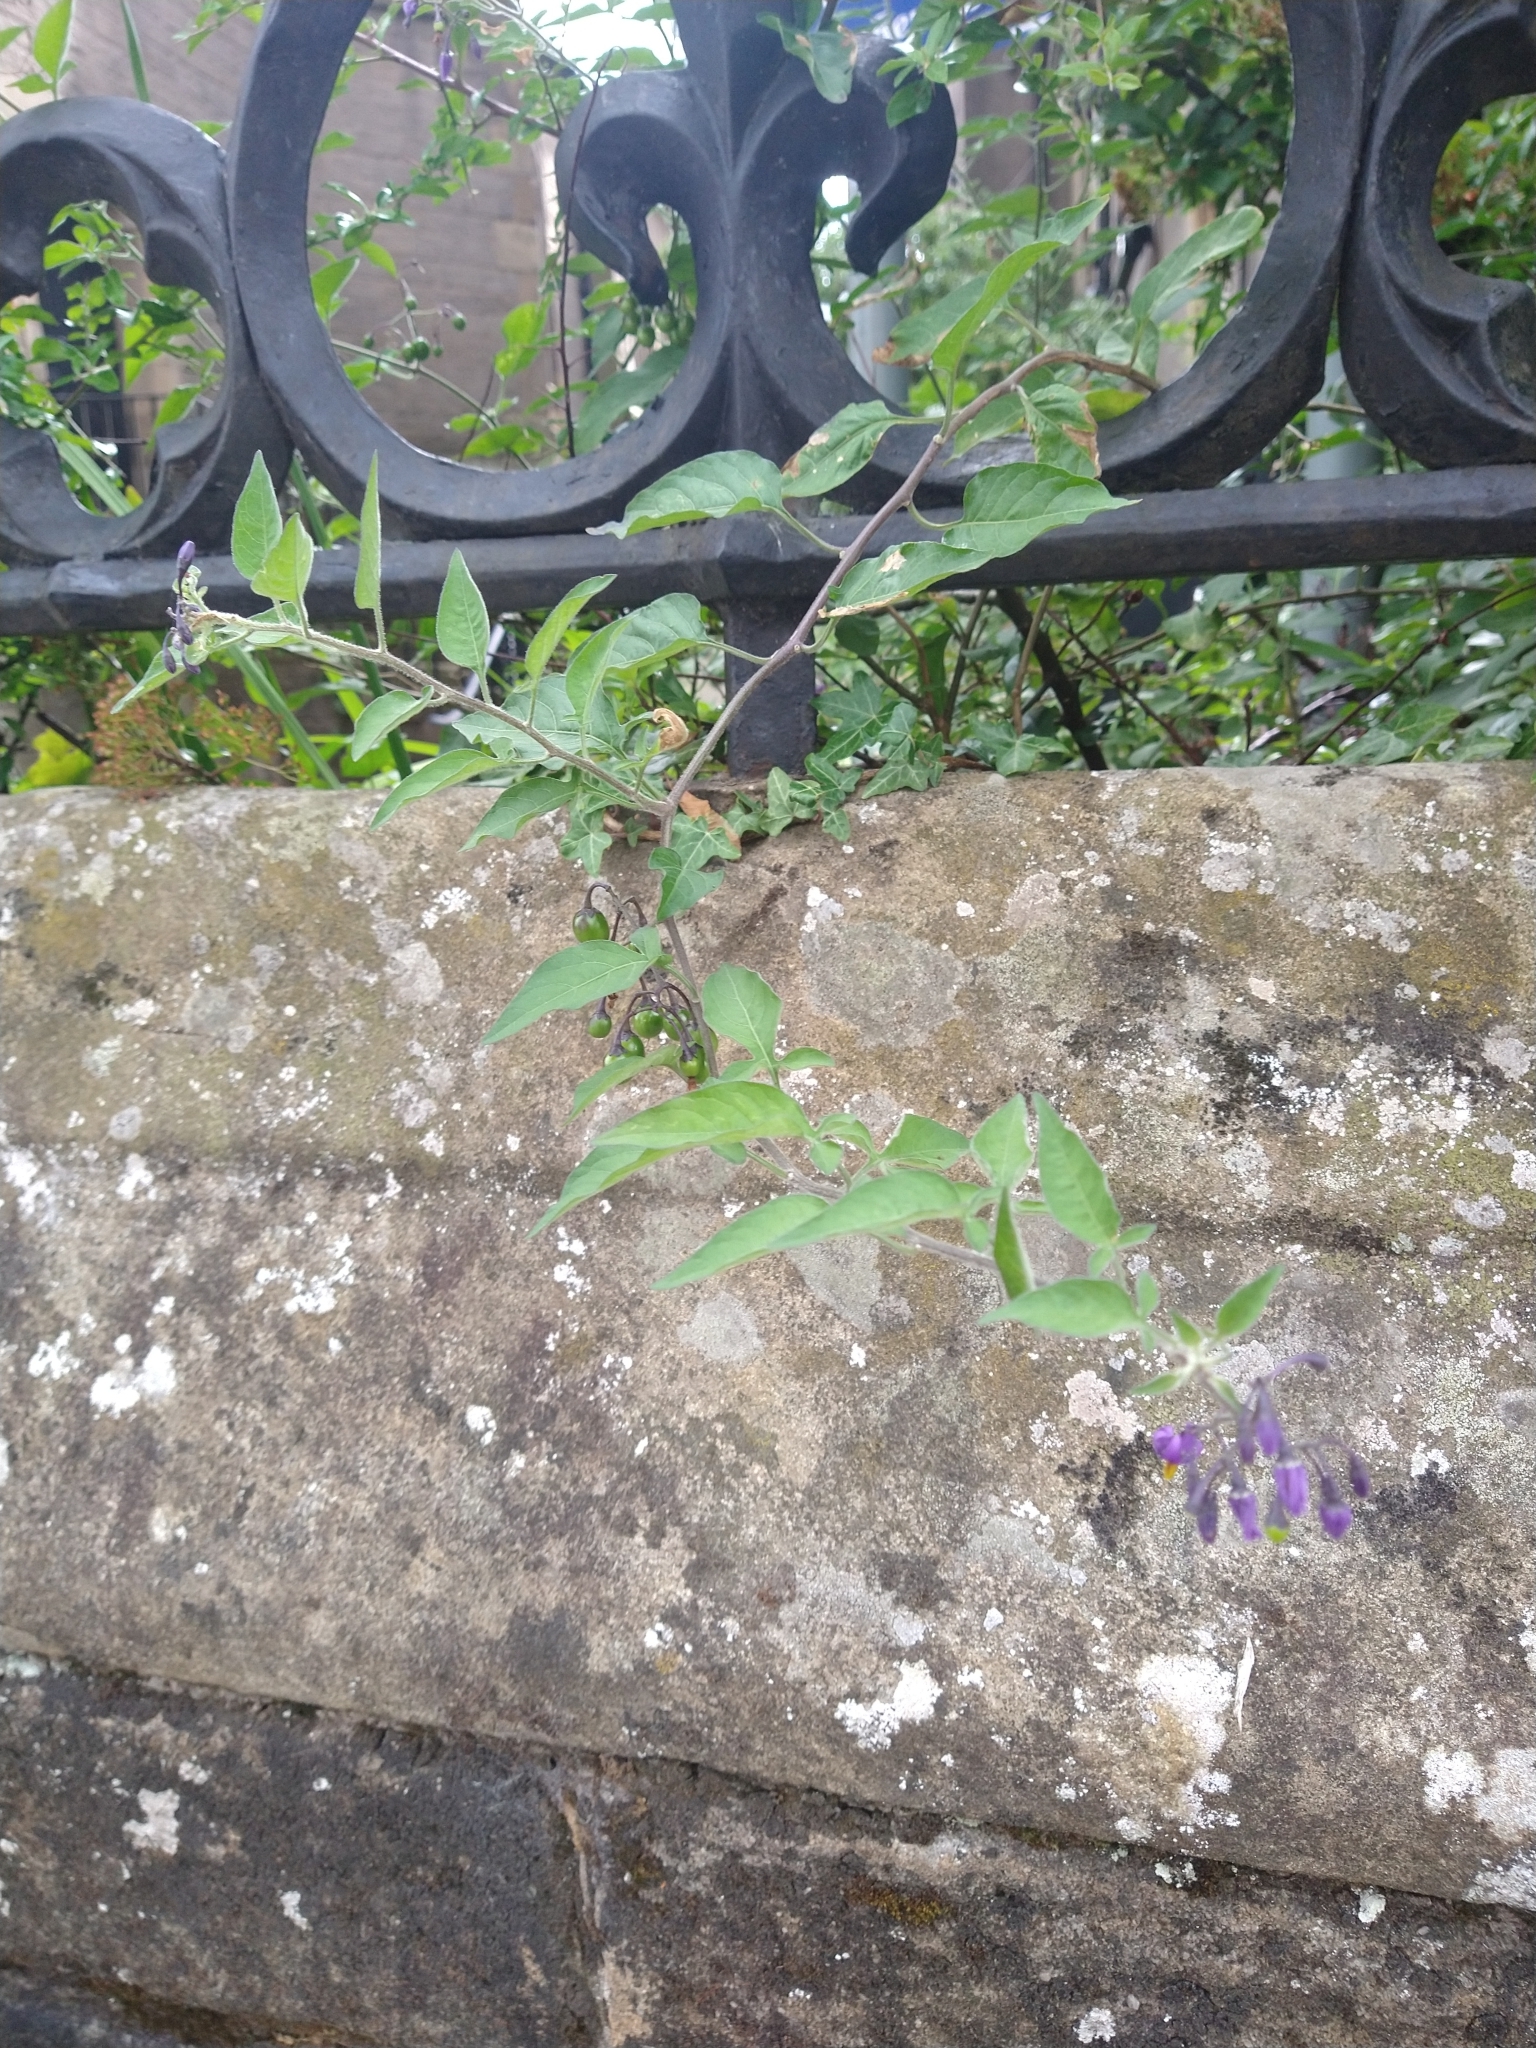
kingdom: Plantae
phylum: Tracheophyta
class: Magnoliopsida
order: Solanales
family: Solanaceae
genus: Solanum
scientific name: Solanum dulcamara
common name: Climbing nightshade
